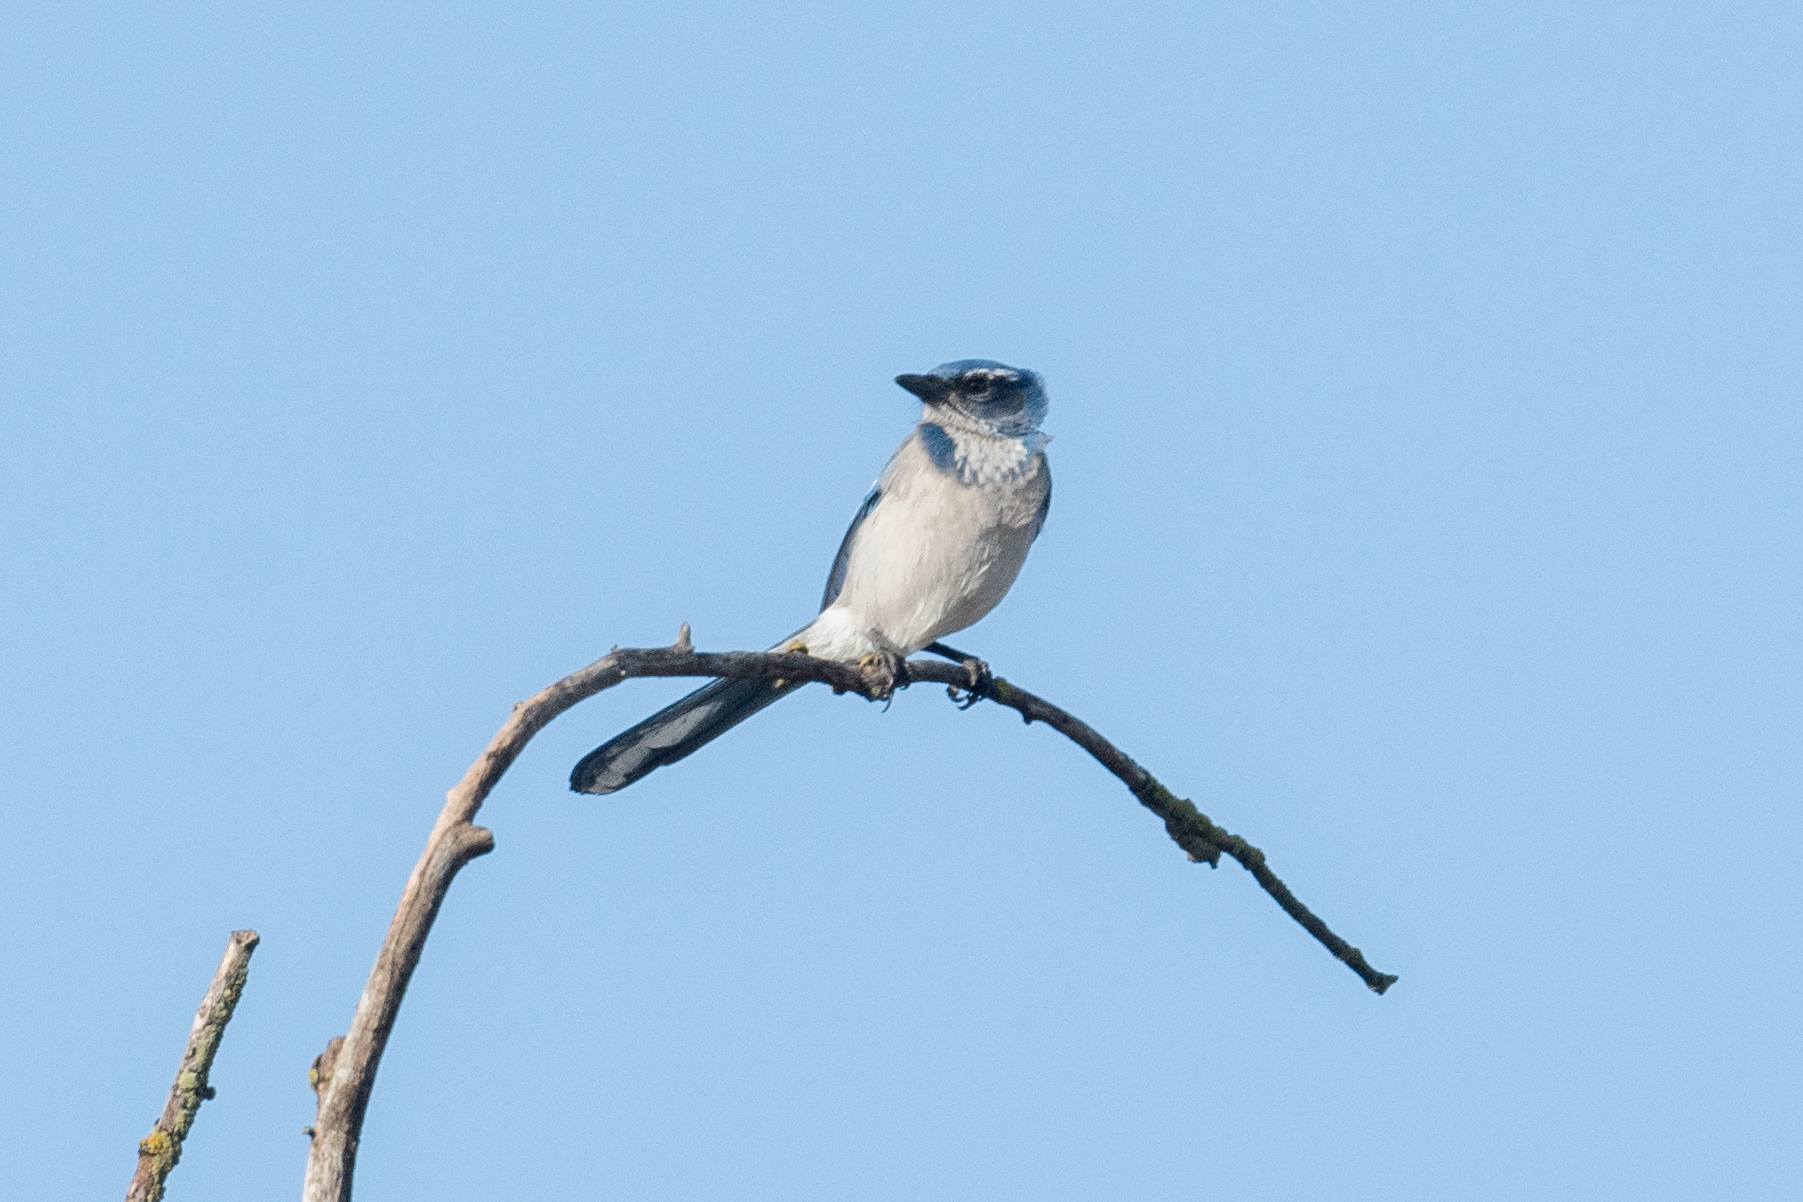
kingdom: Animalia
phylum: Chordata
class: Aves
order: Passeriformes
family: Corvidae
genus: Aphelocoma
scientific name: Aphelocoma californica
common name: California scrub-jay
